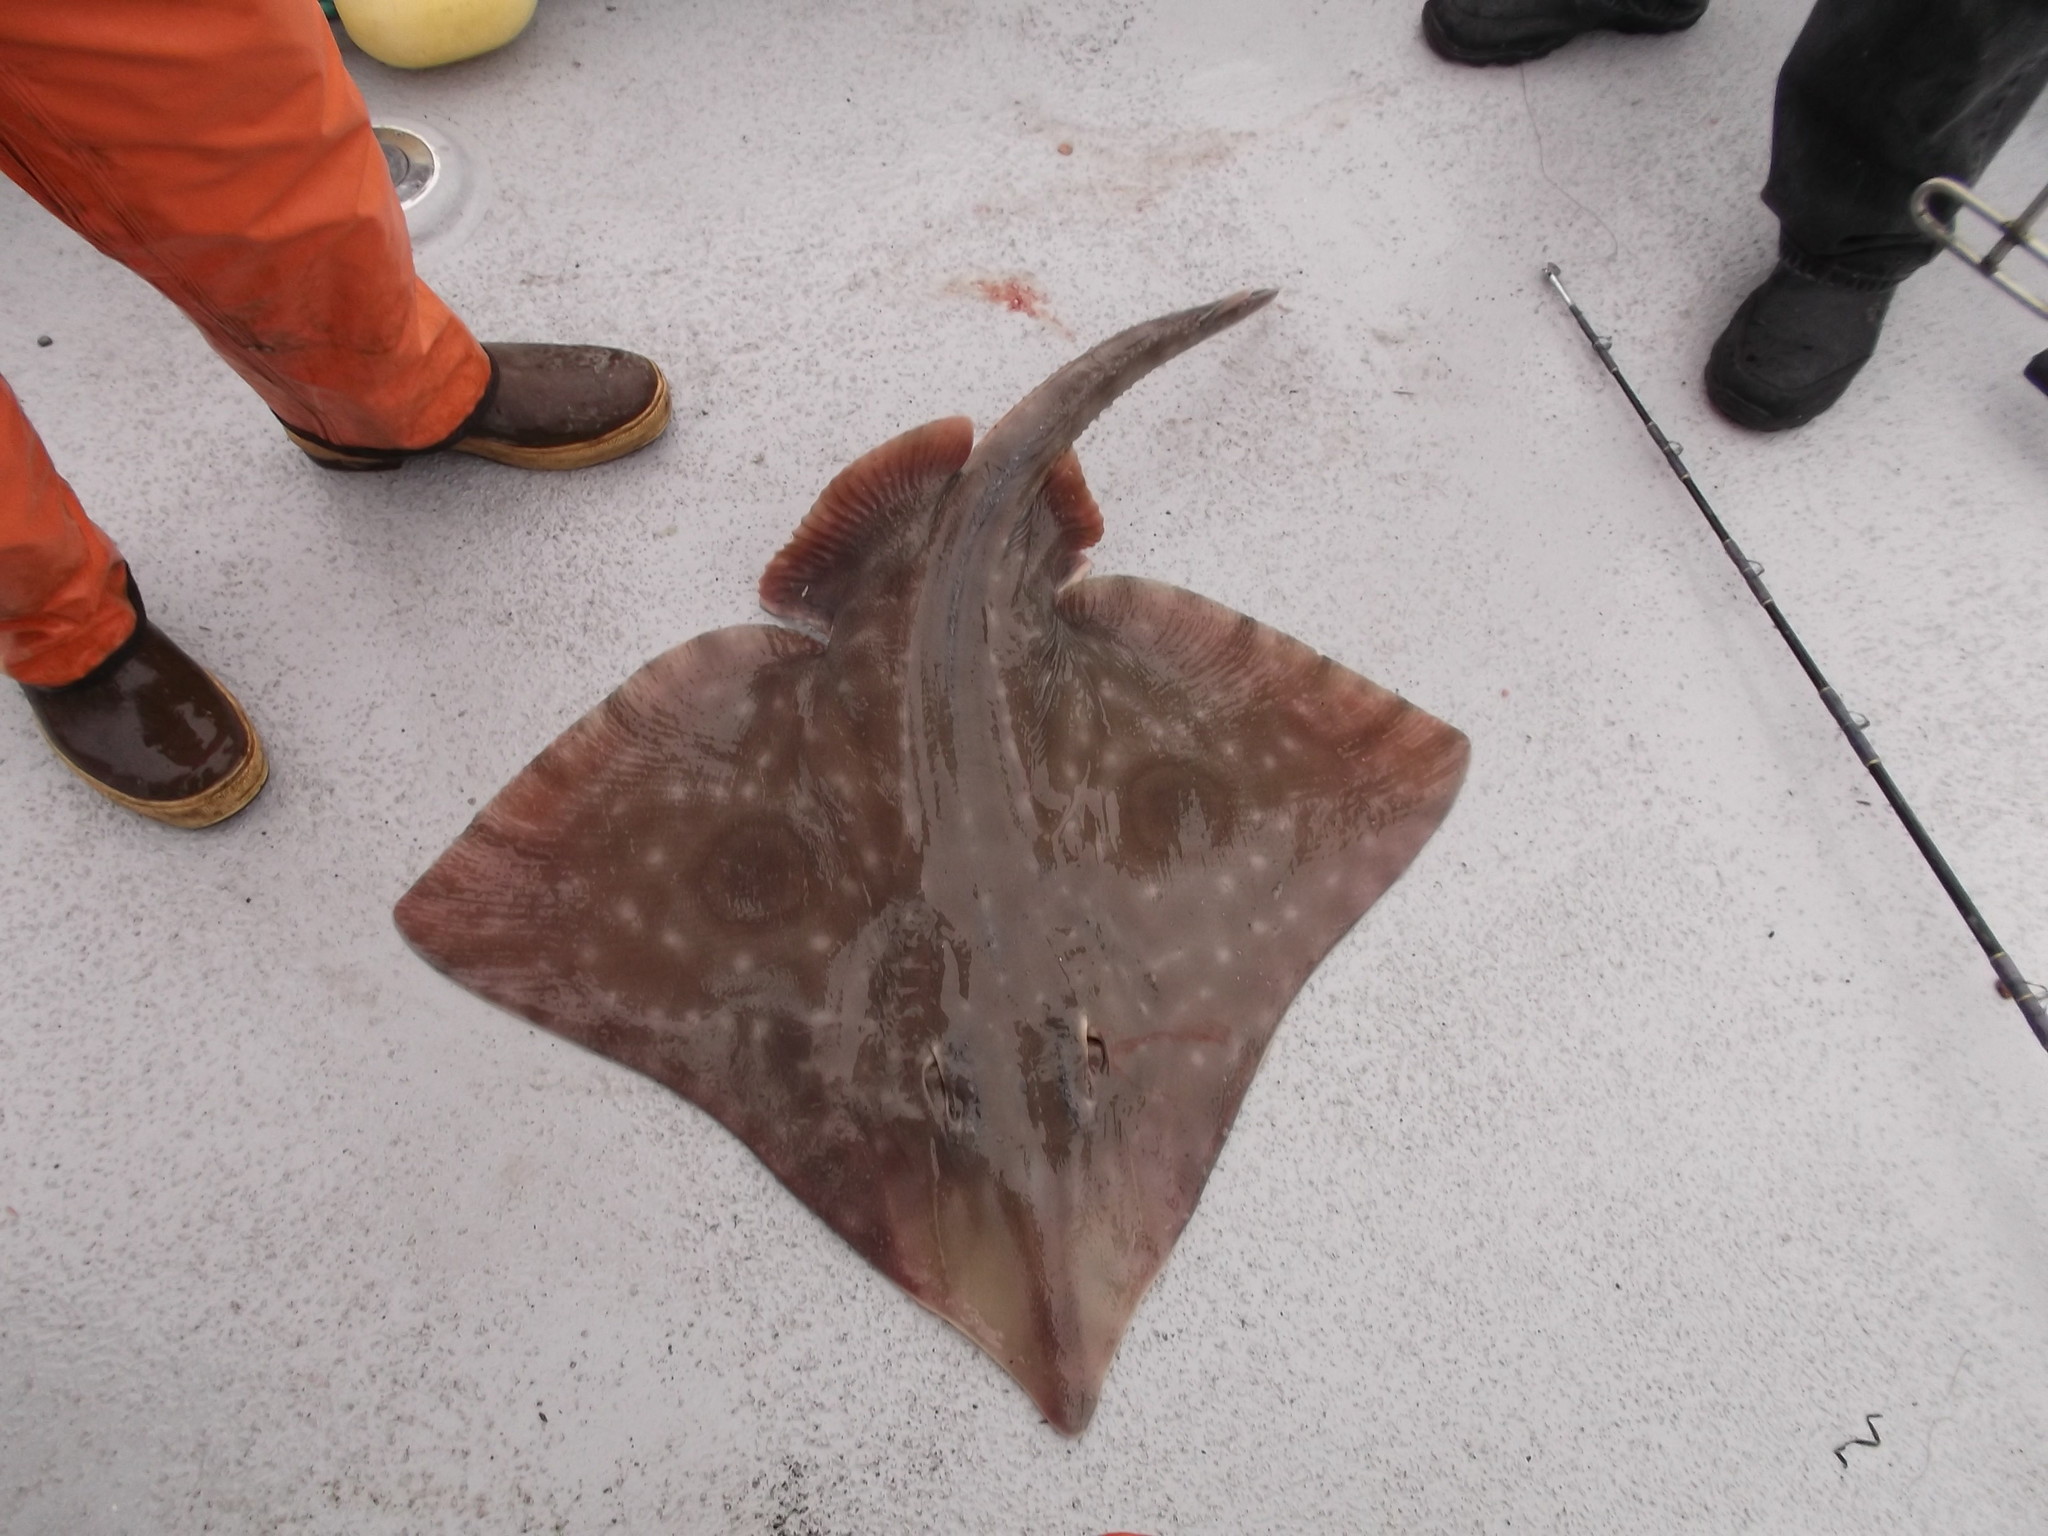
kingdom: Animalia
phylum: Chordata
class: Elasmobranchii
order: Rajiformes
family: Rajidae
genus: Beringraja
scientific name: Beringraja binoculata
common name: Big skate
